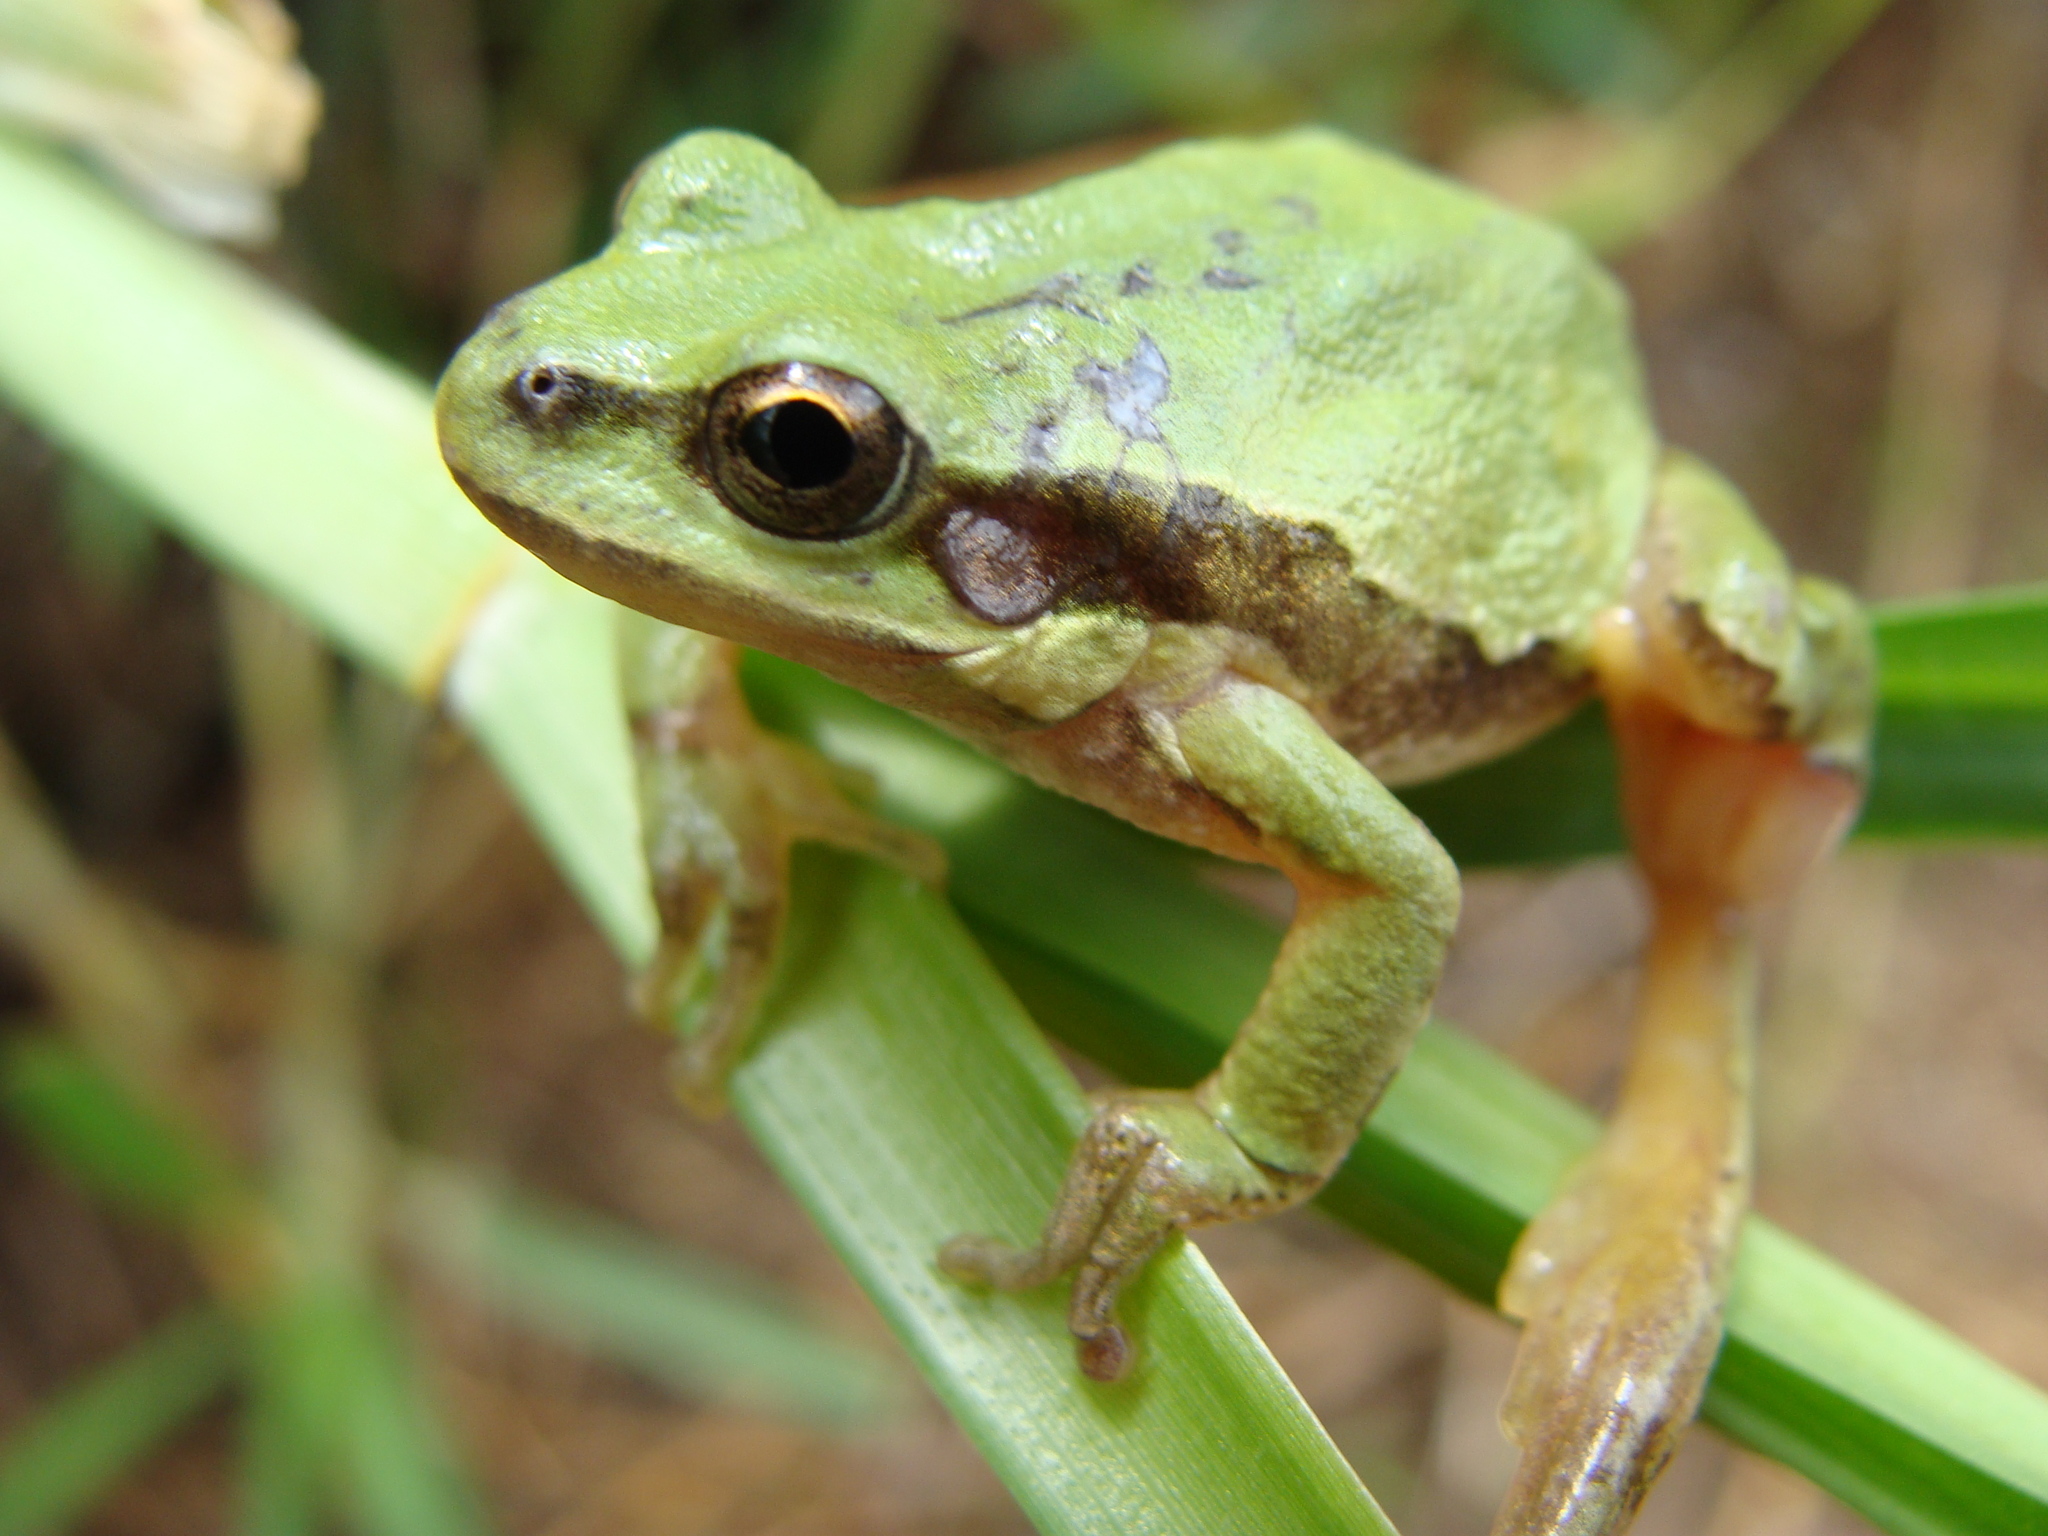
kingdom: Animalia
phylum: Chordata
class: Amphibia
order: Anura
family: Hylidae
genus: Dryophytes
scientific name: Dryophytes eximius
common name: Mountain treefrog
